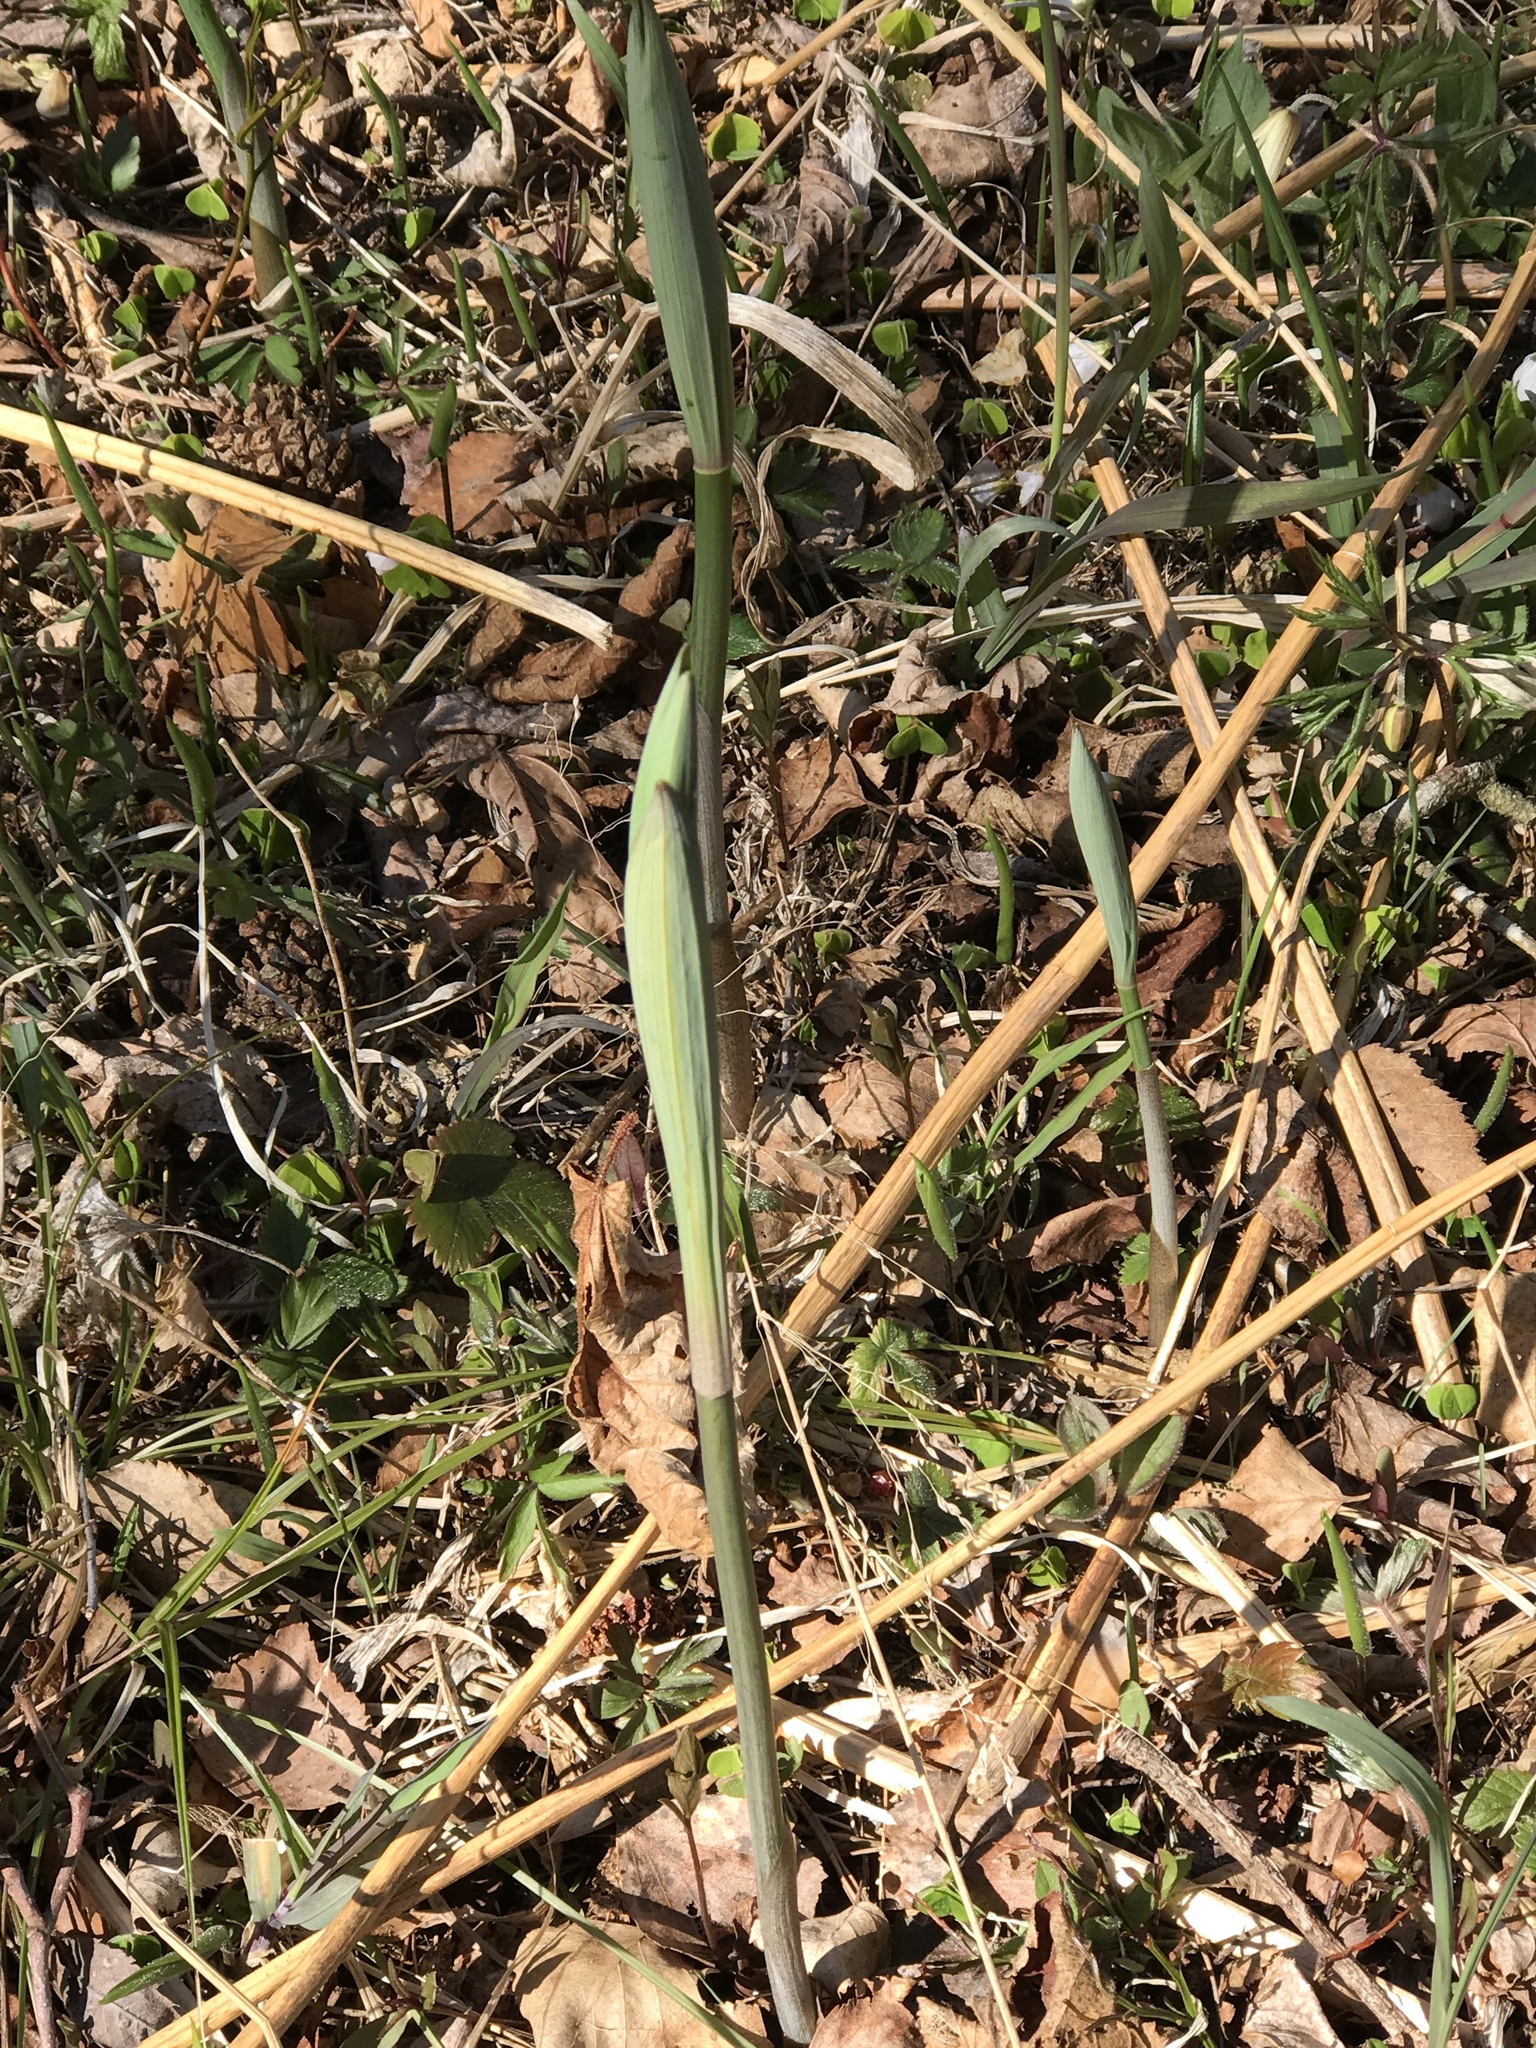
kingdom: Plantae
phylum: Tracheophyta
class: Liliopsida
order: Asparagales
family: Asparagaceae
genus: Polygonatum
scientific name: Polygonatum odoratum
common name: Angular solomon's-seal
